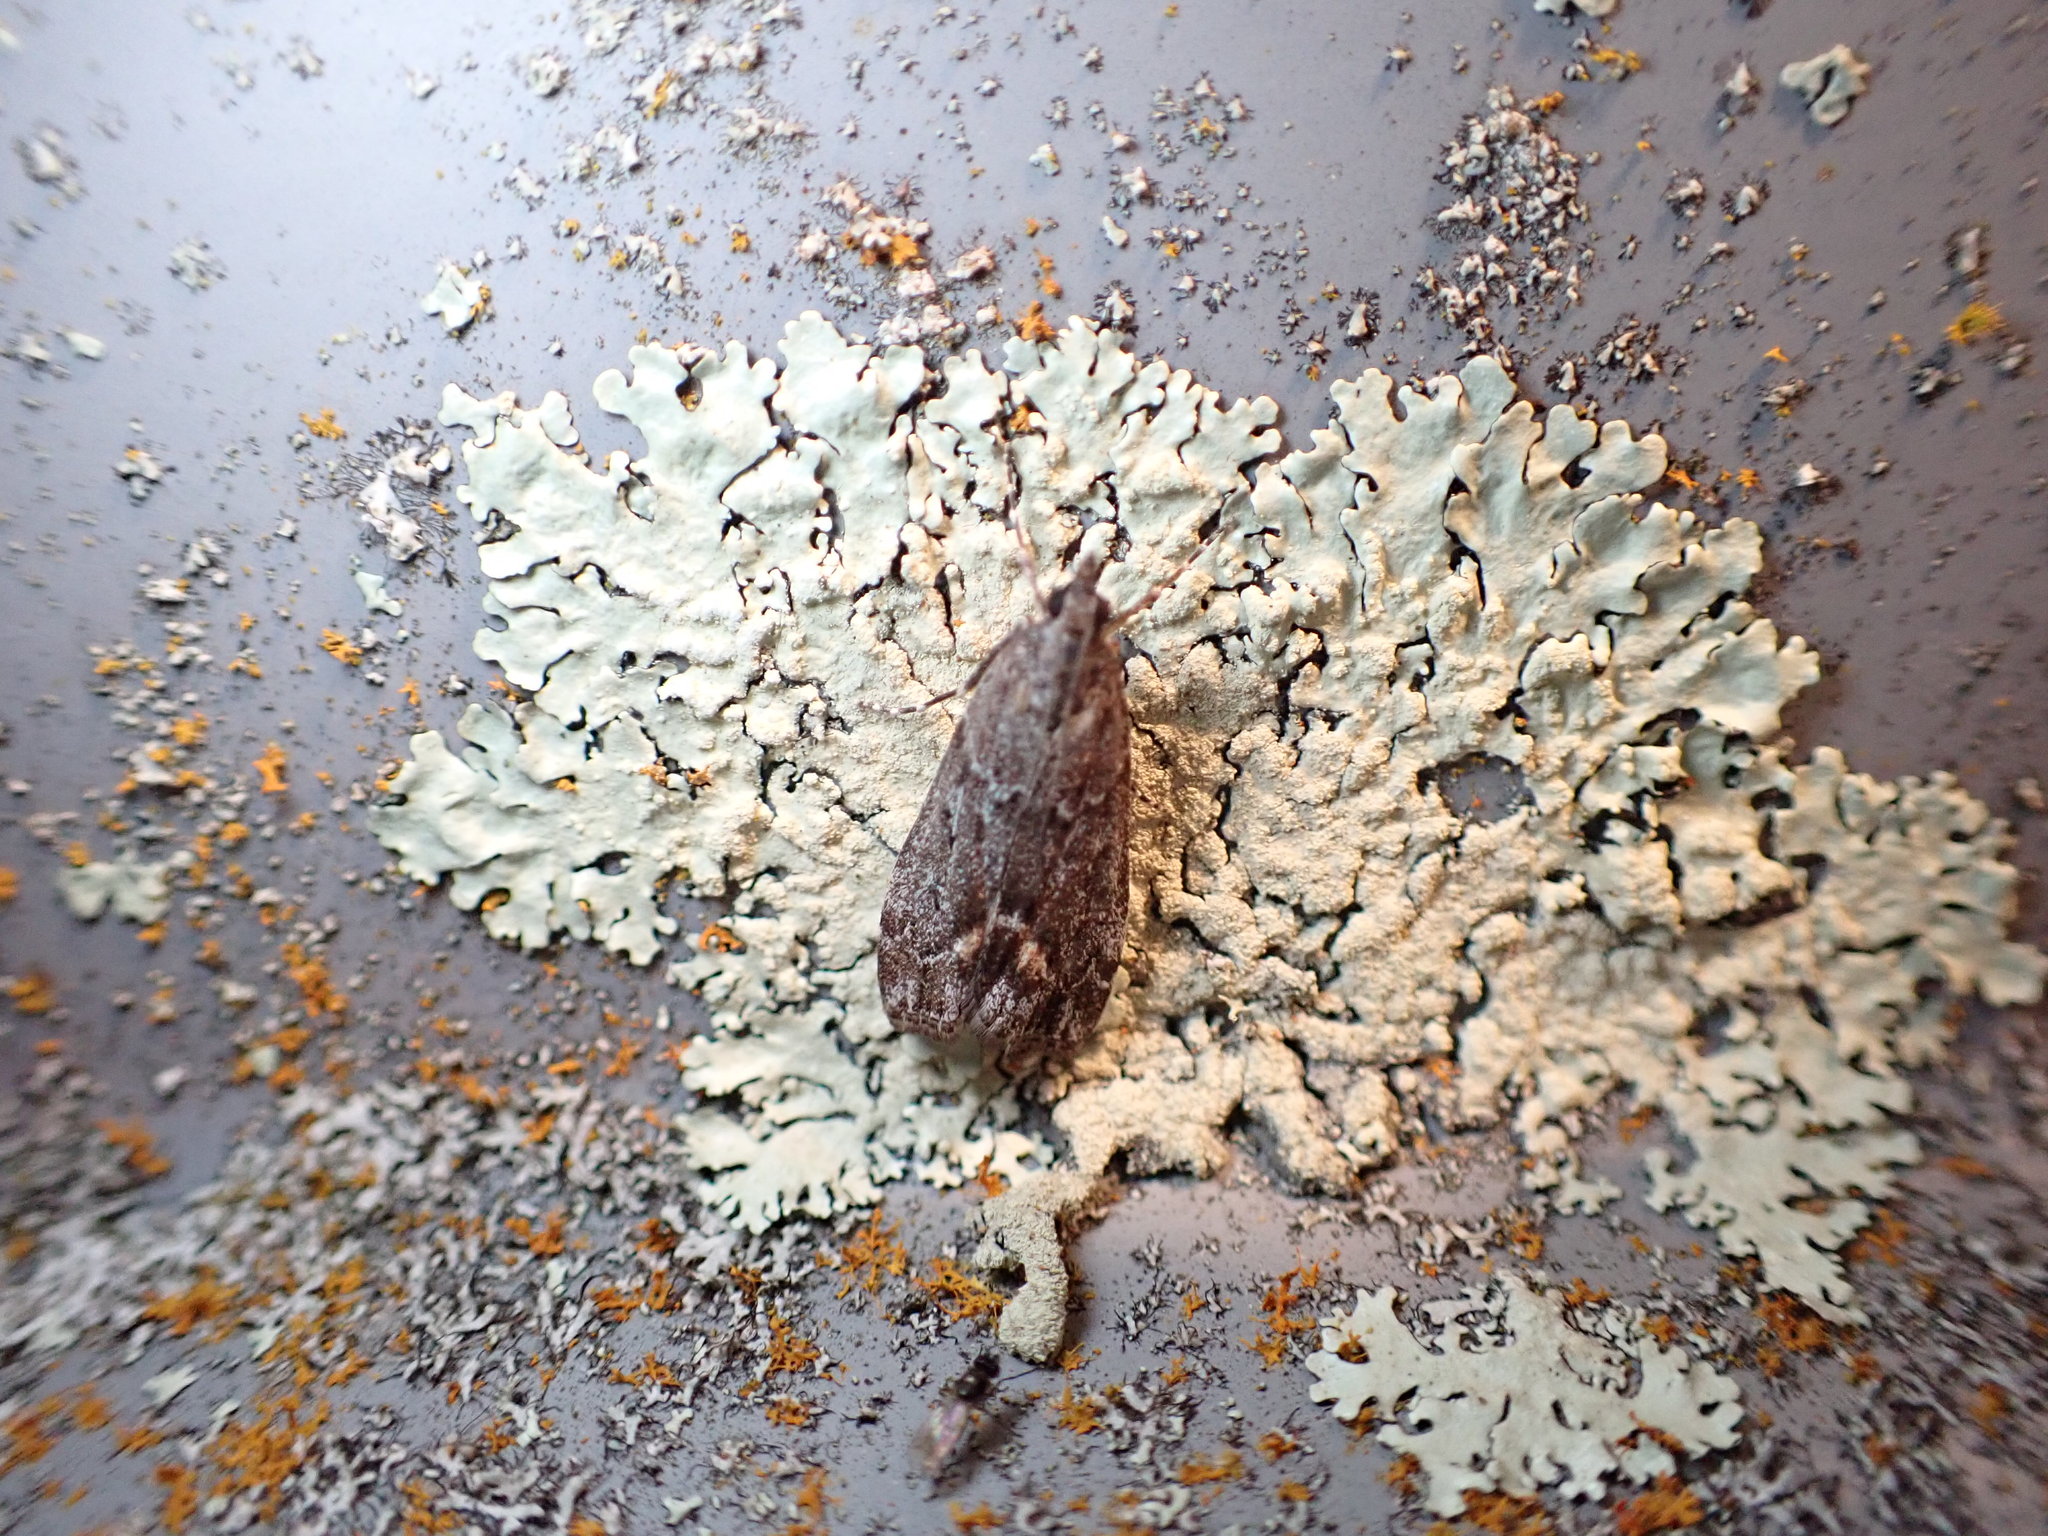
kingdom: Animalia
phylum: Arthropoda
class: Insecta
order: Lepidoptera
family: Crambidae
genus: Eudonia
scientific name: Eudonia submarginalis
